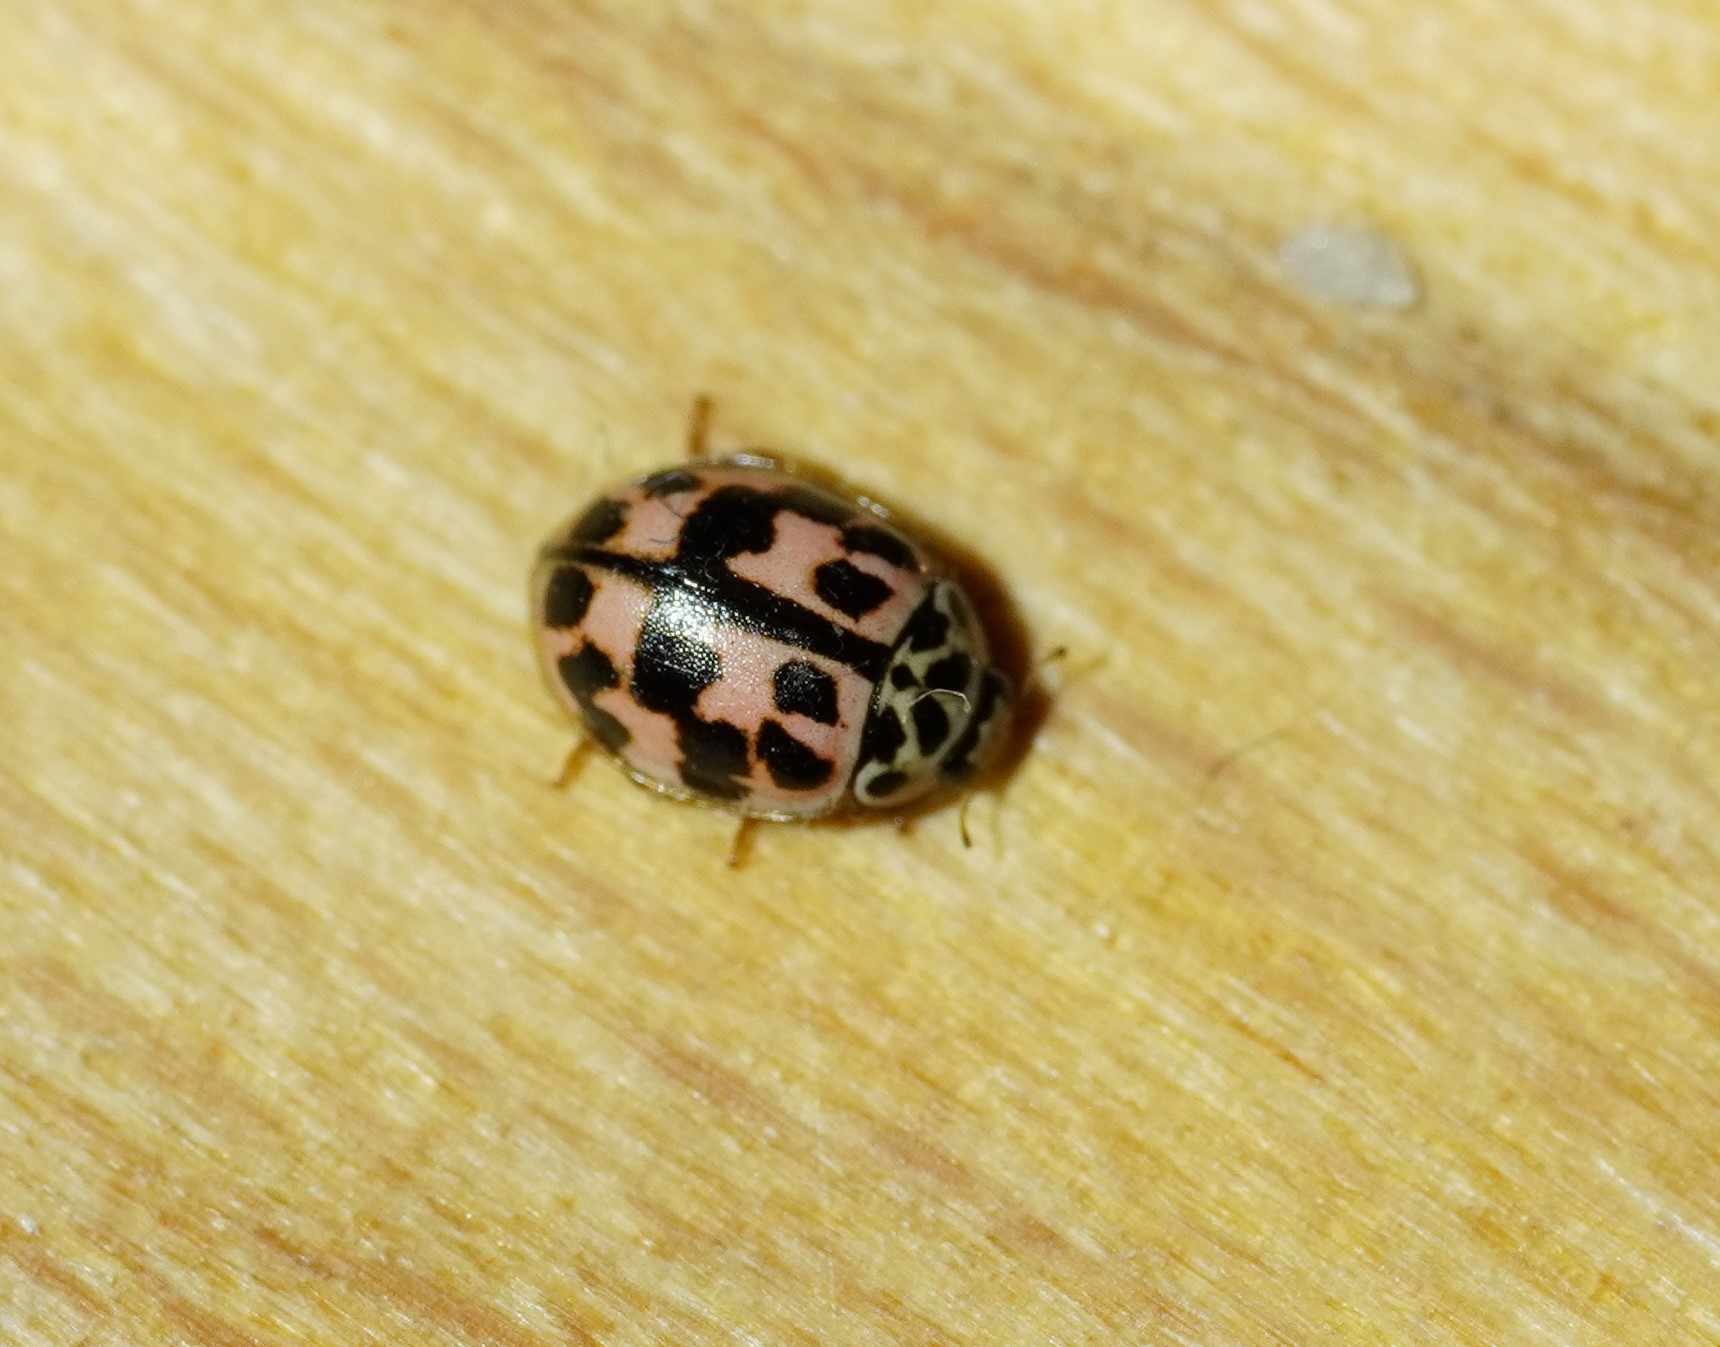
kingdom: Animalia
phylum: Arthropoda
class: Insecta
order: Coleoptera
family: Coccinellidae
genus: Oenopia
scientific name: Oenopia conglobata
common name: Ladybird beetle
